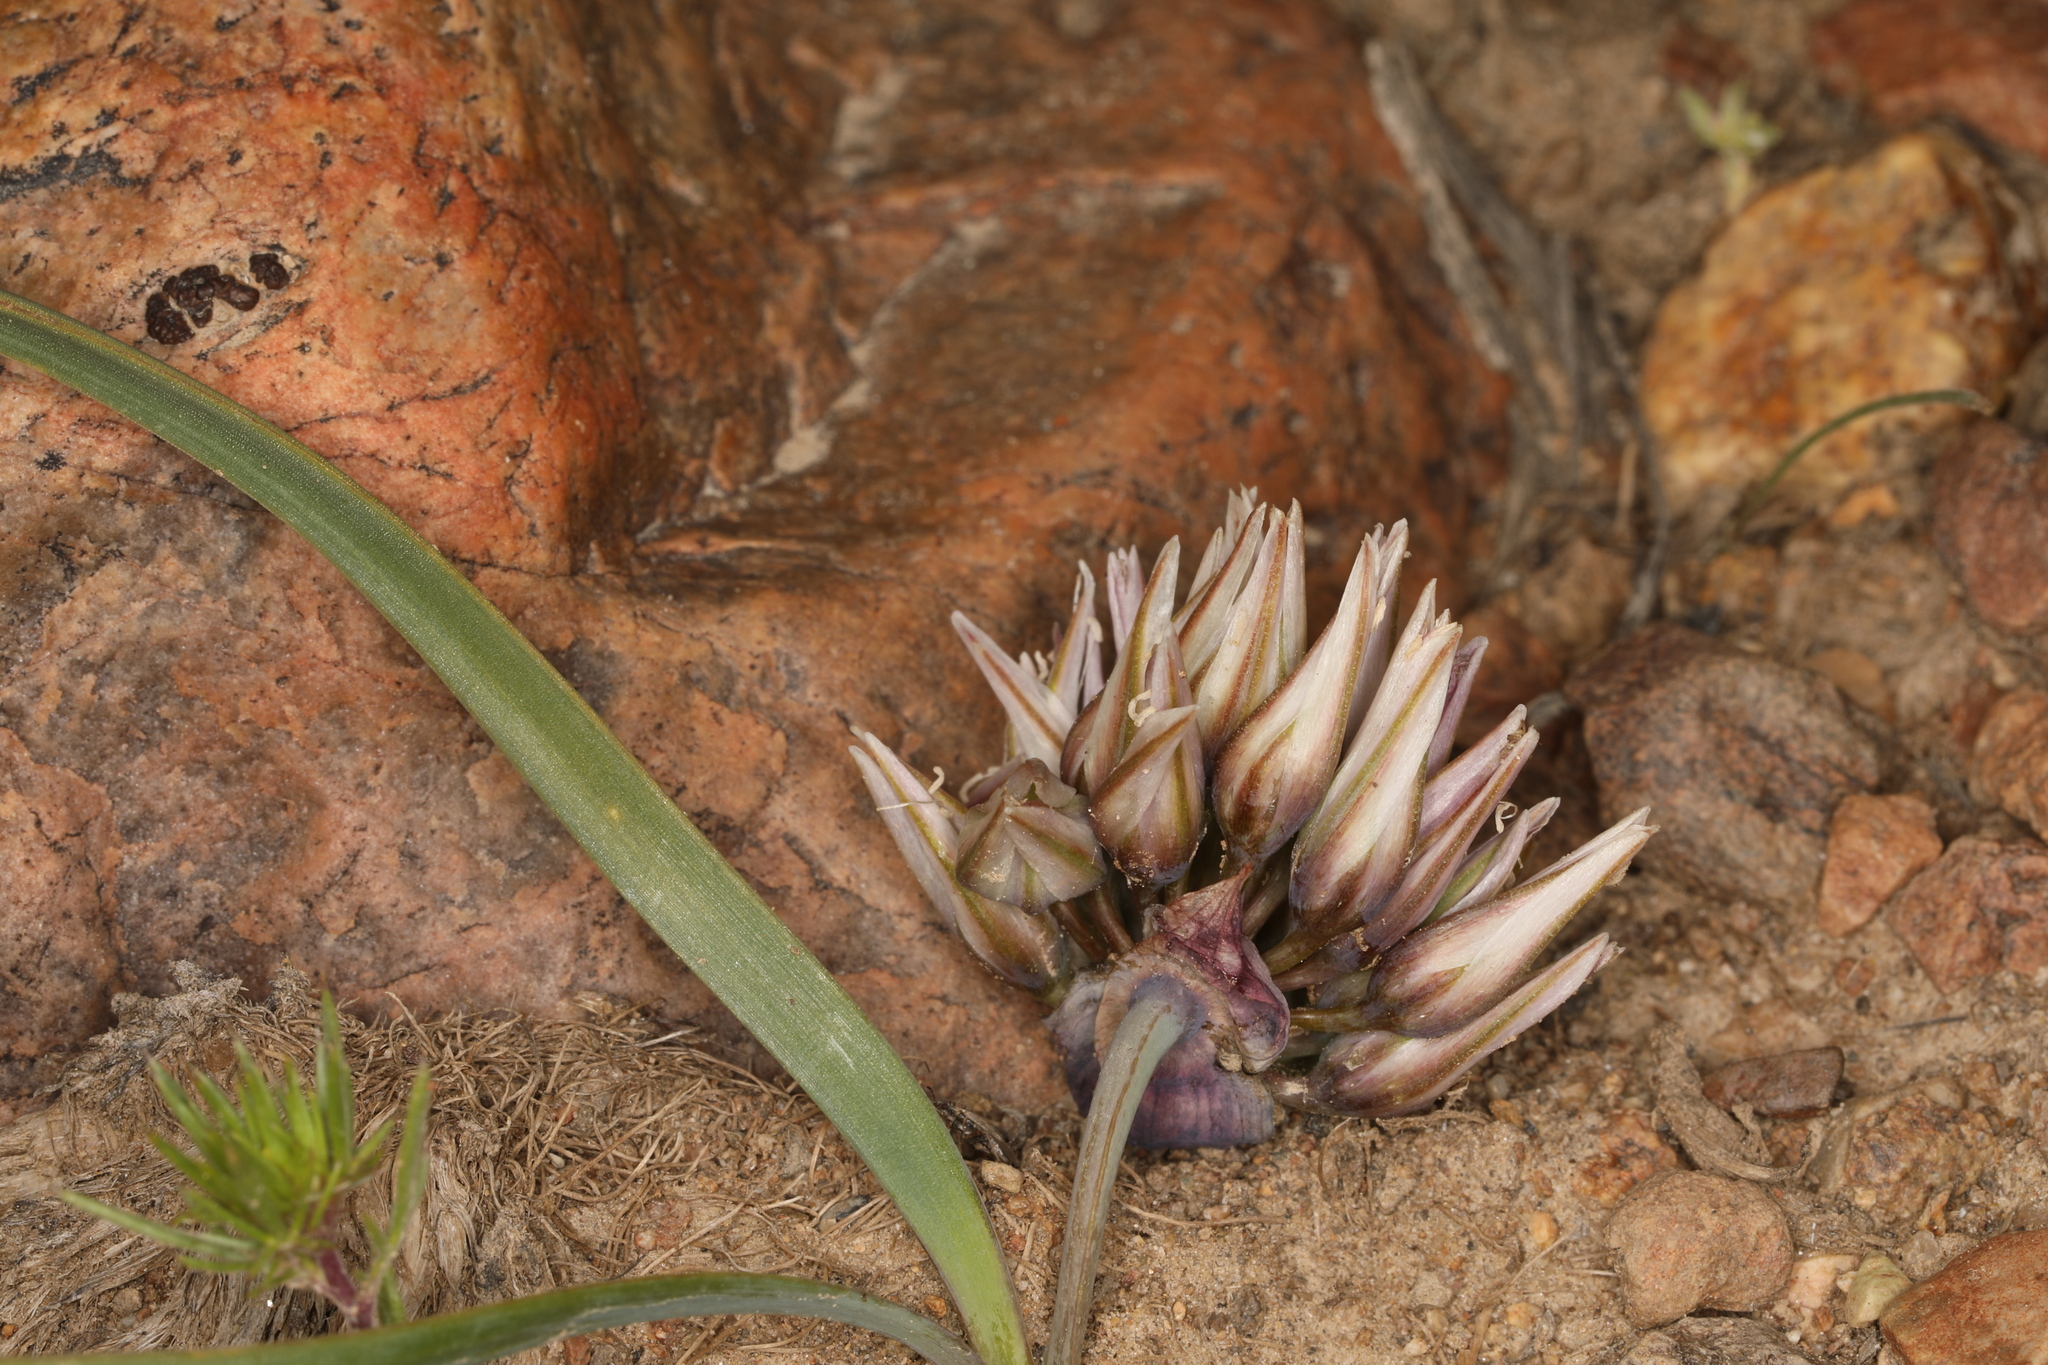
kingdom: Plantae
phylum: Tracheophyta
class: Liliopsida
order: Asparagales
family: Amaryllidaceae
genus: Allium
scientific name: Allium parvum
